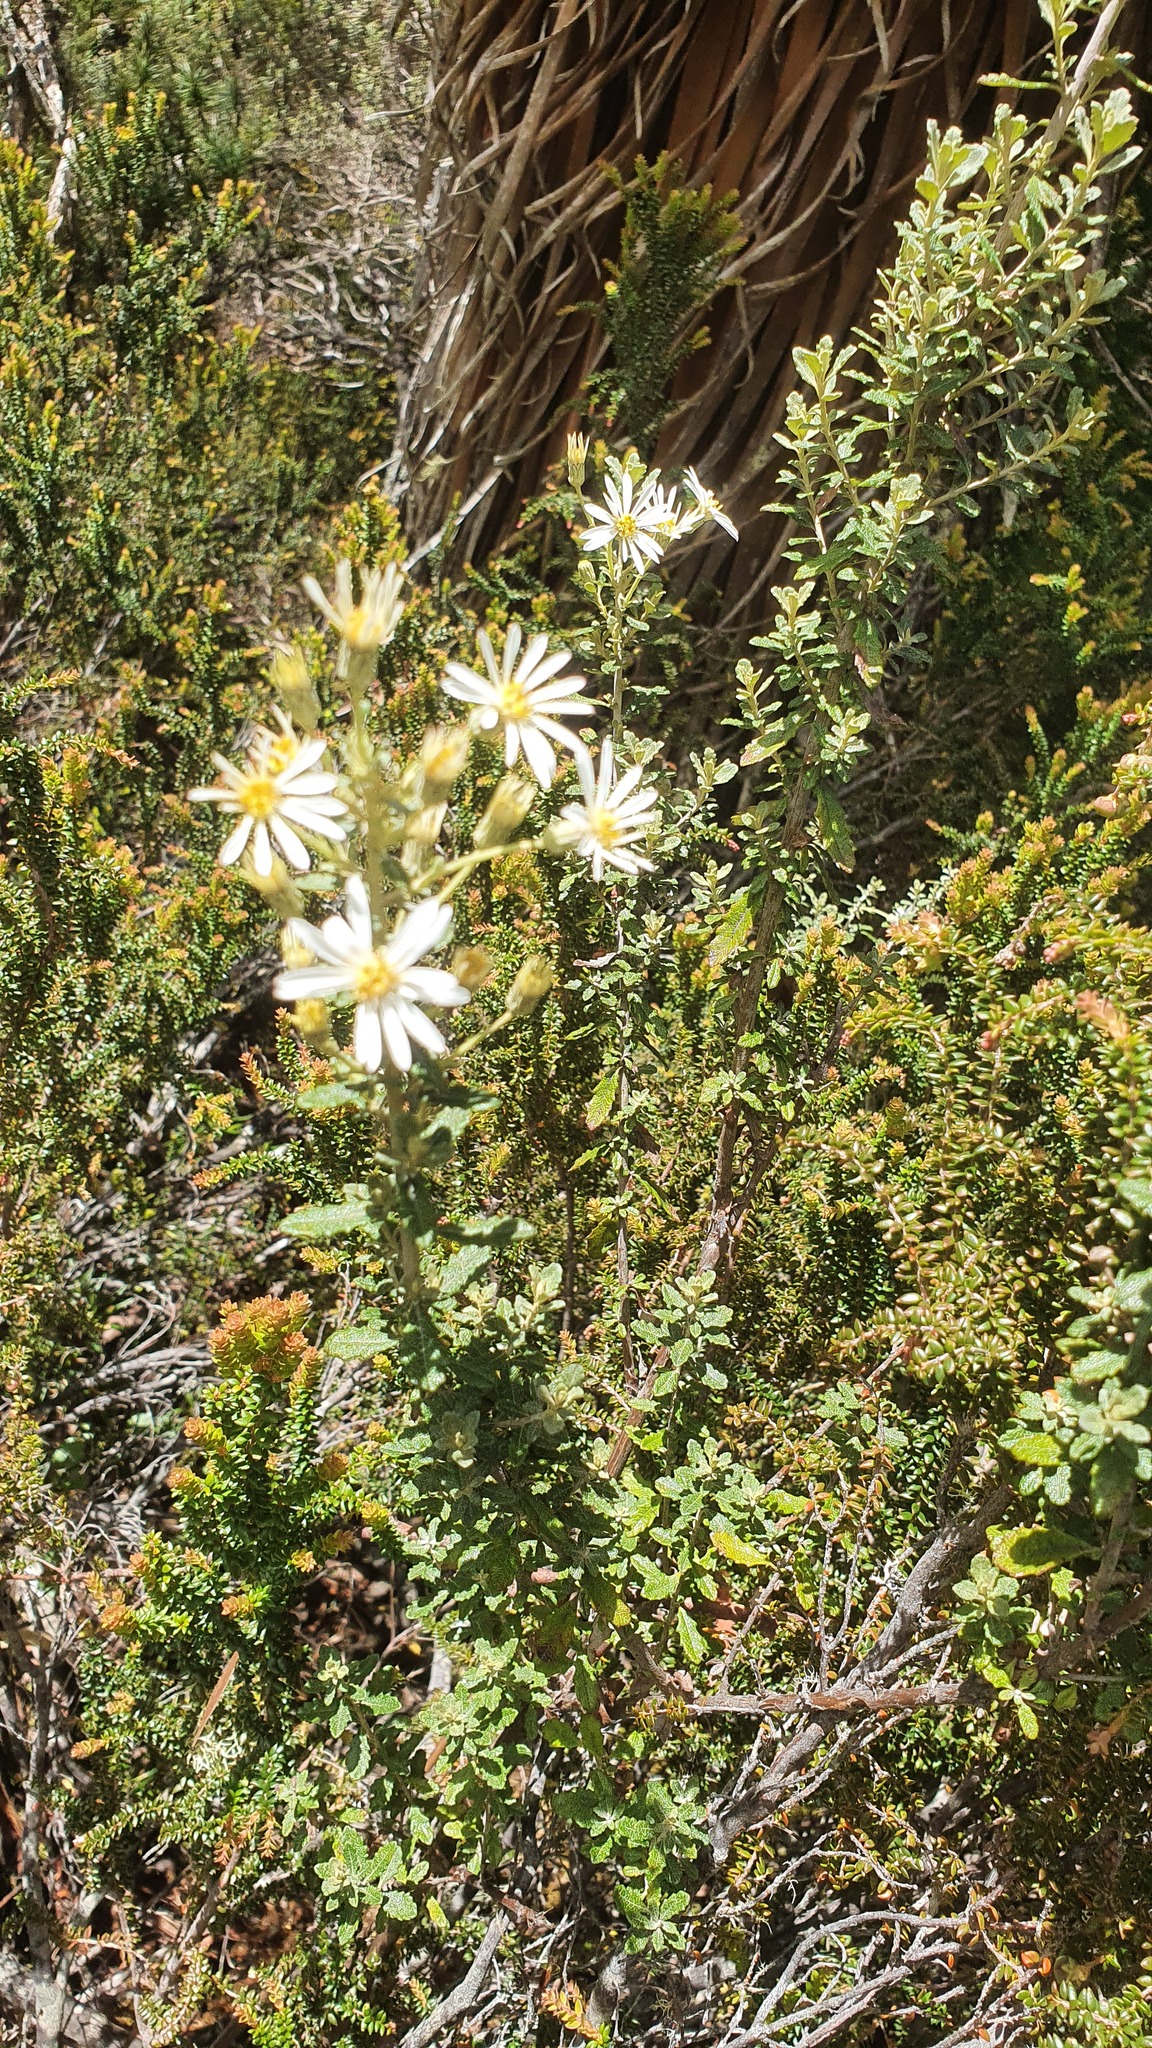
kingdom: Plantae
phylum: Tracheophyta
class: Magnoliopsida
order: Asterales
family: Asteraceae
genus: Olearia
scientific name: Olearia phlogopappa
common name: Alpine daisybush
